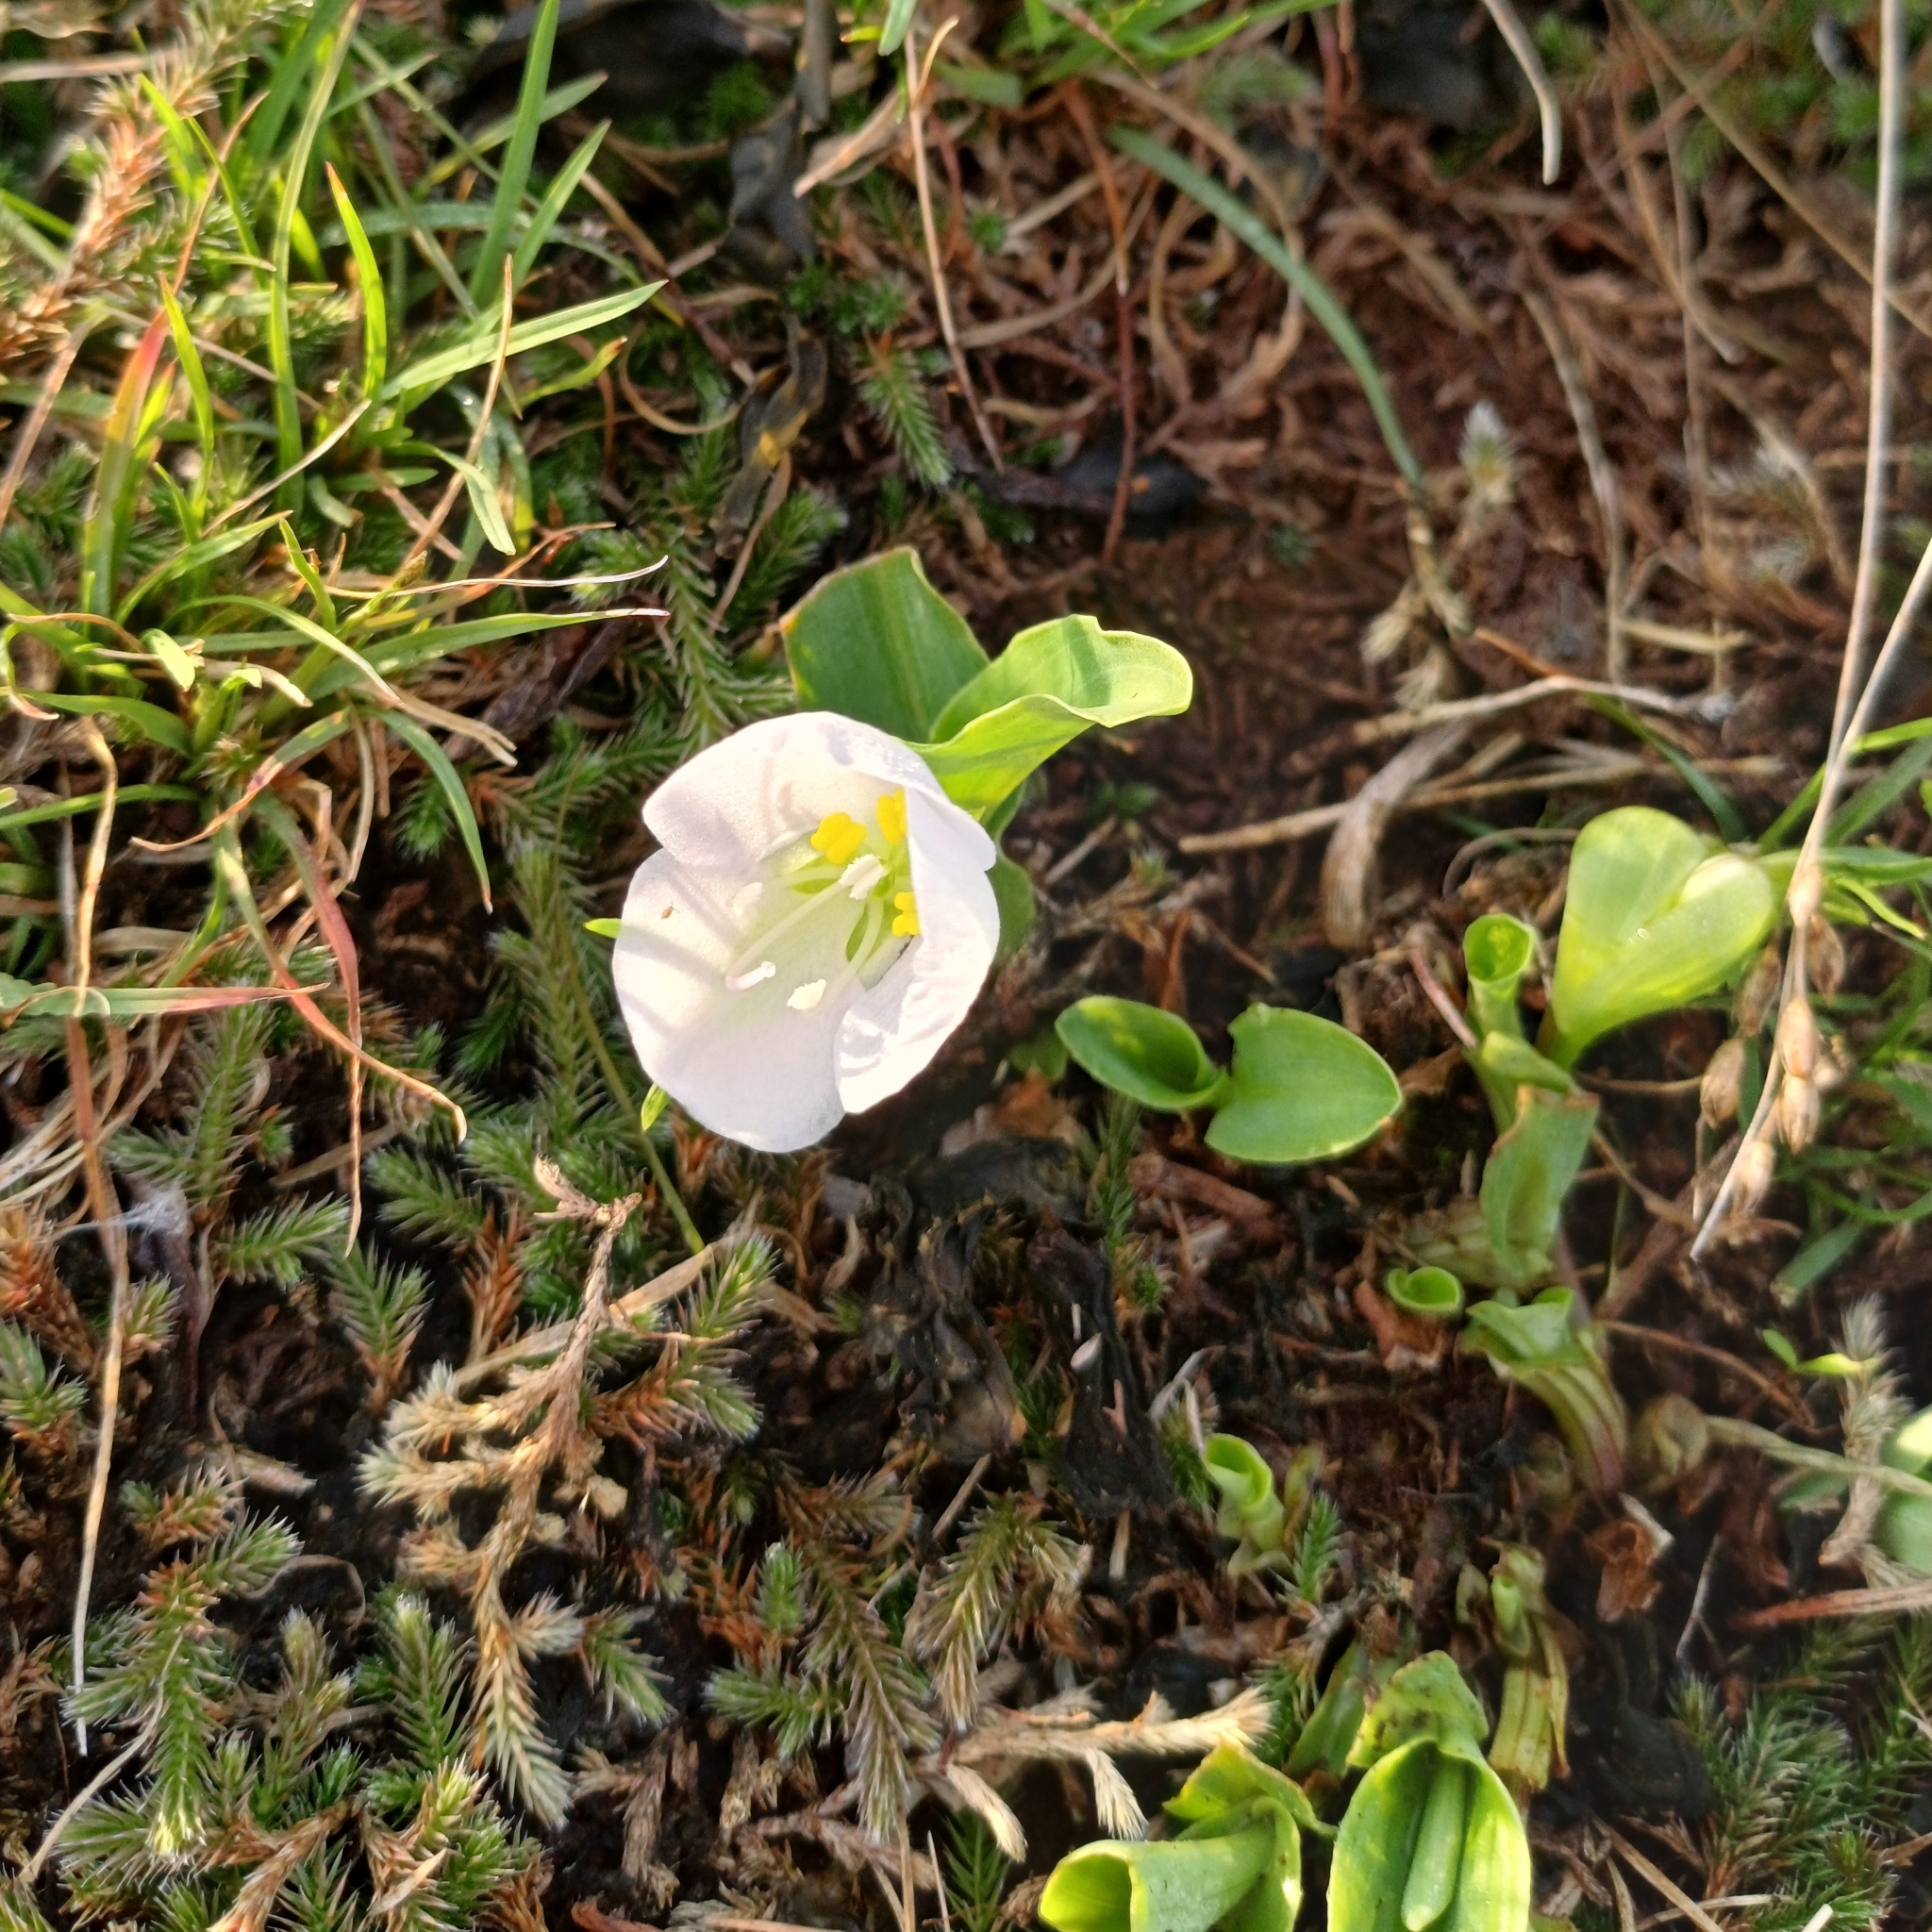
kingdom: Plantae
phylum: Tracheophyta
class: Liliopsida
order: Commelinales
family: Commelinaceae
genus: Commelina
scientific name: Commelina platyphylla
